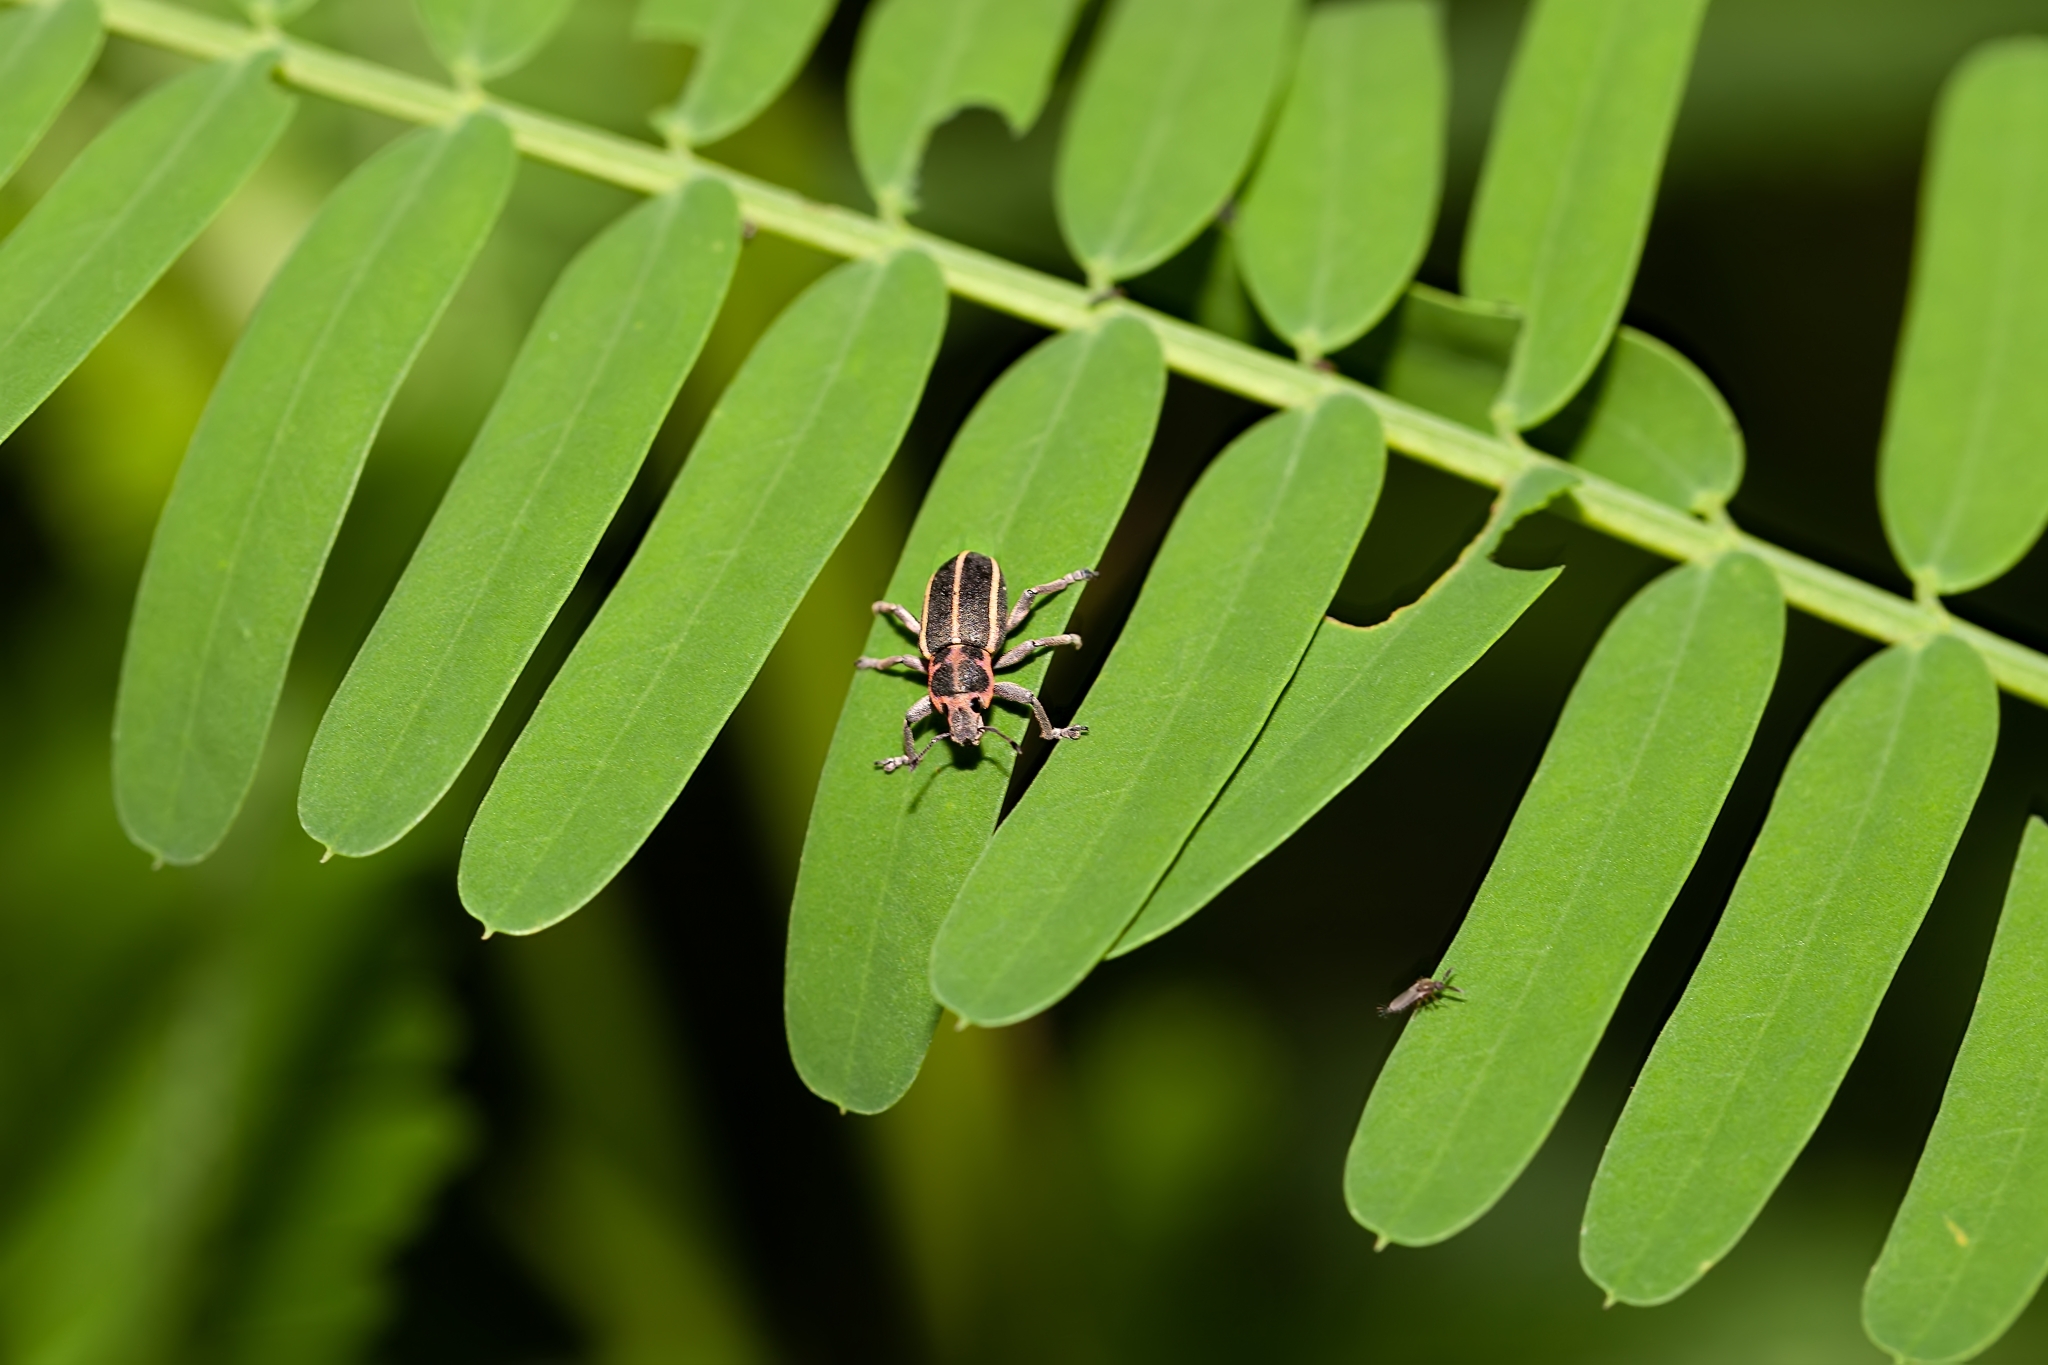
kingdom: Animalia
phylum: Arthropoda
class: Insecta
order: Coleoptera
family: Curculionidae
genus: Eudiagogus
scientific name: Eudiagogus maryae
